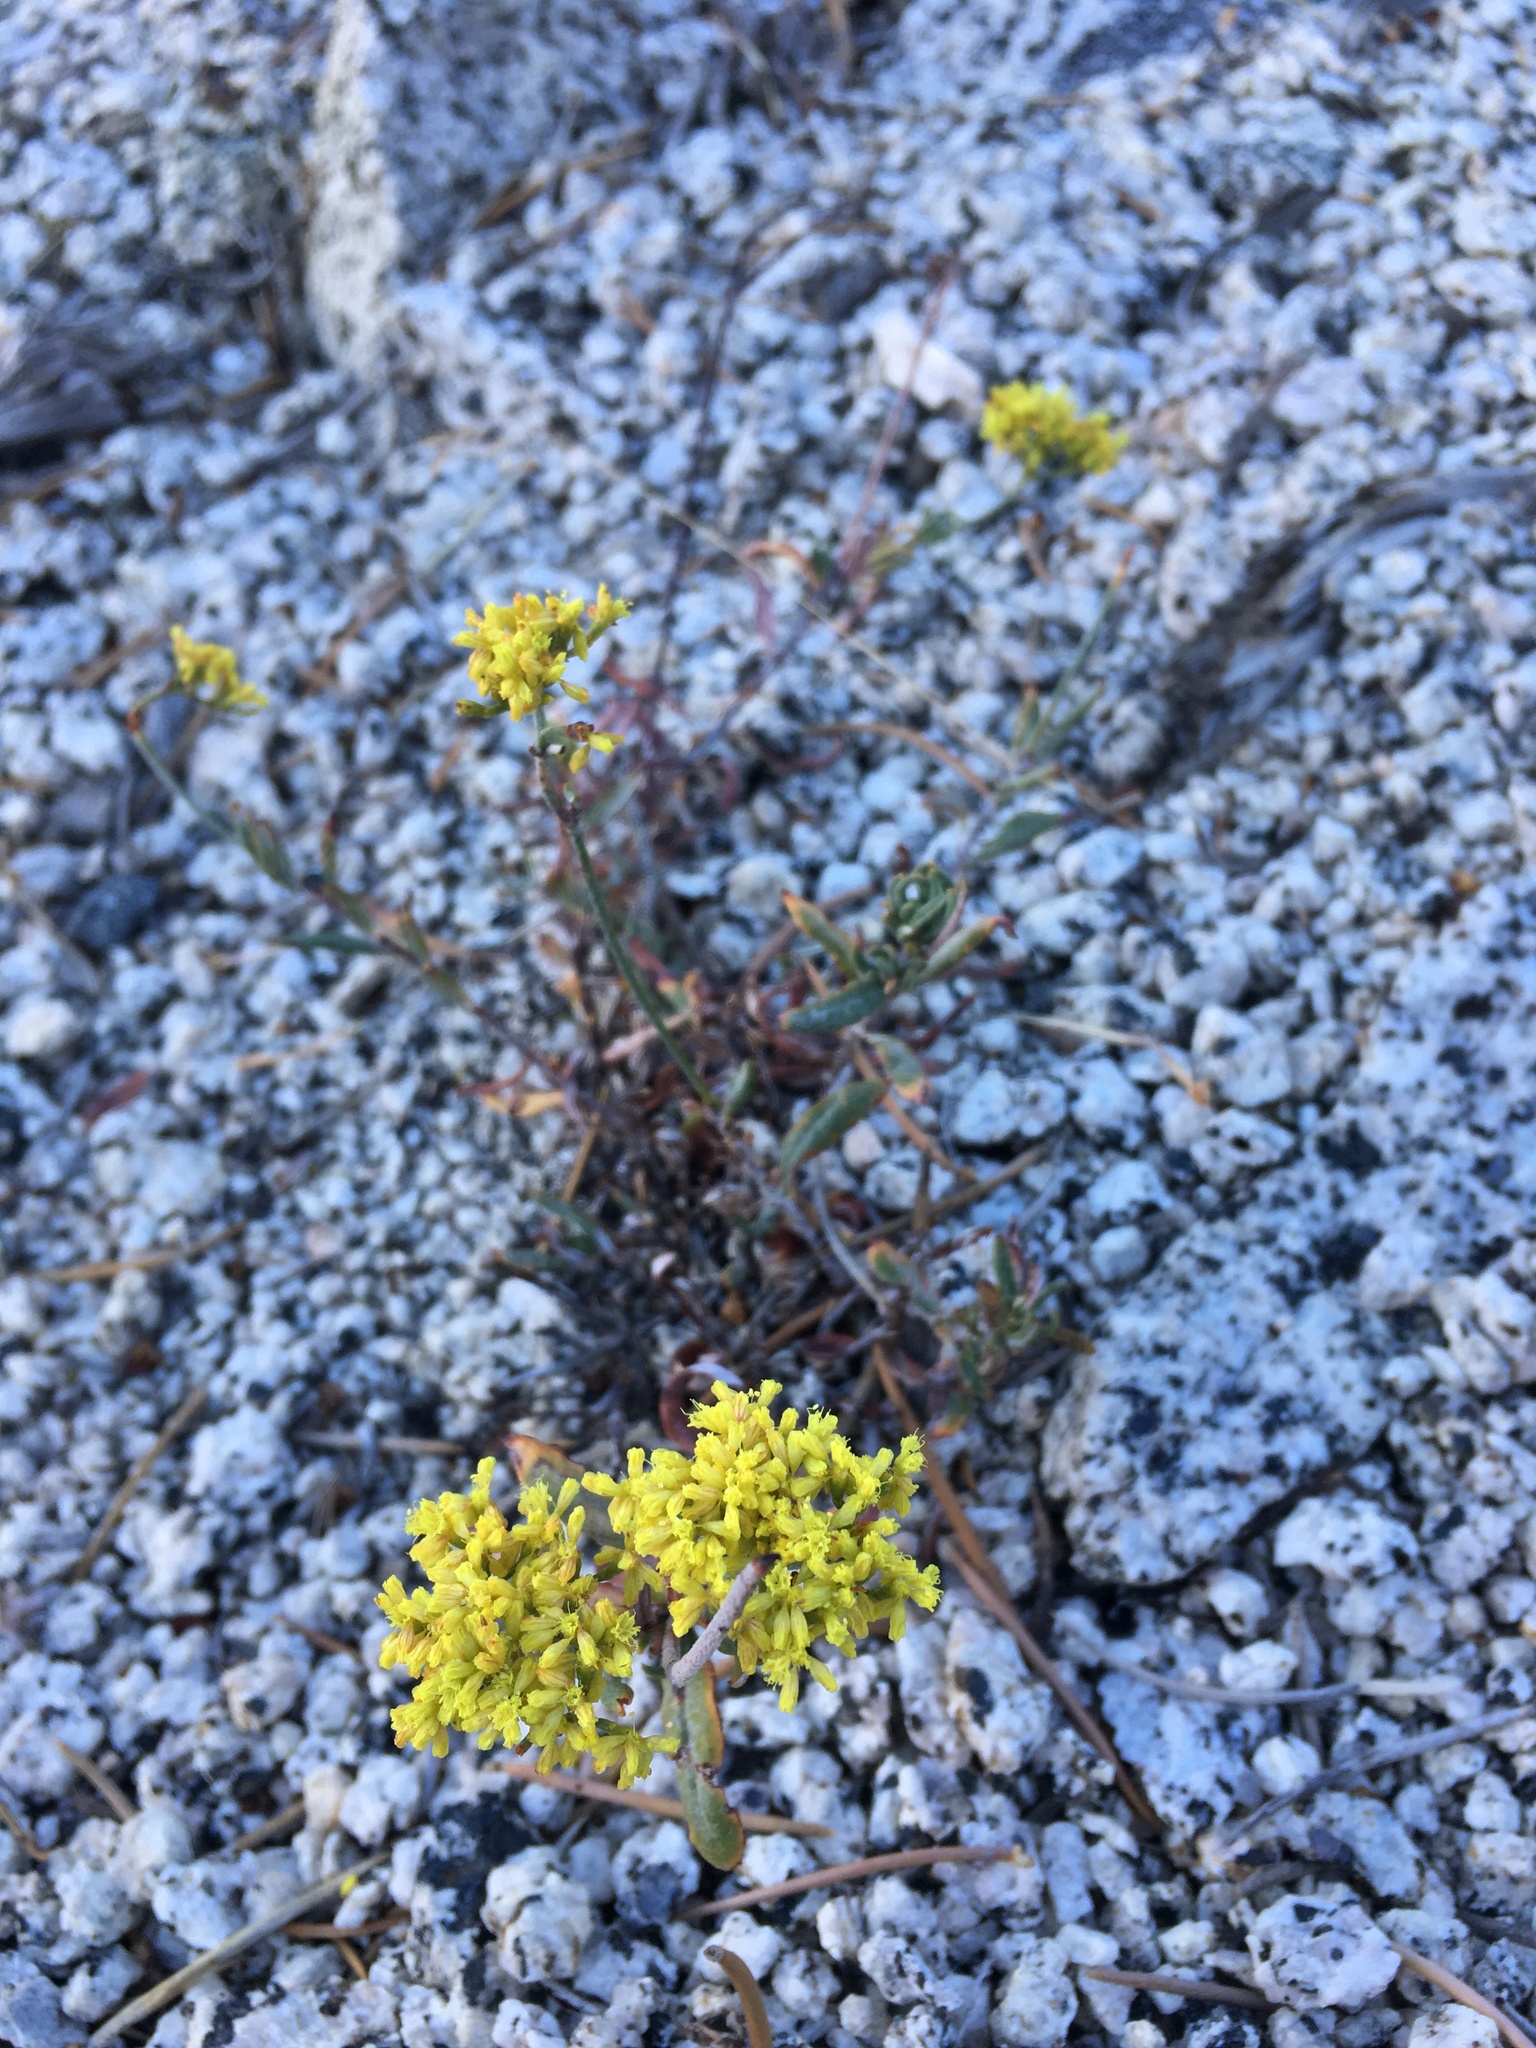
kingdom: Plantae
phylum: Tracheophyta
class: Magnoliopsida
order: Caryophyllales
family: Polygonaceae
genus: Eriogonum
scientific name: Eriogonum microtheca
